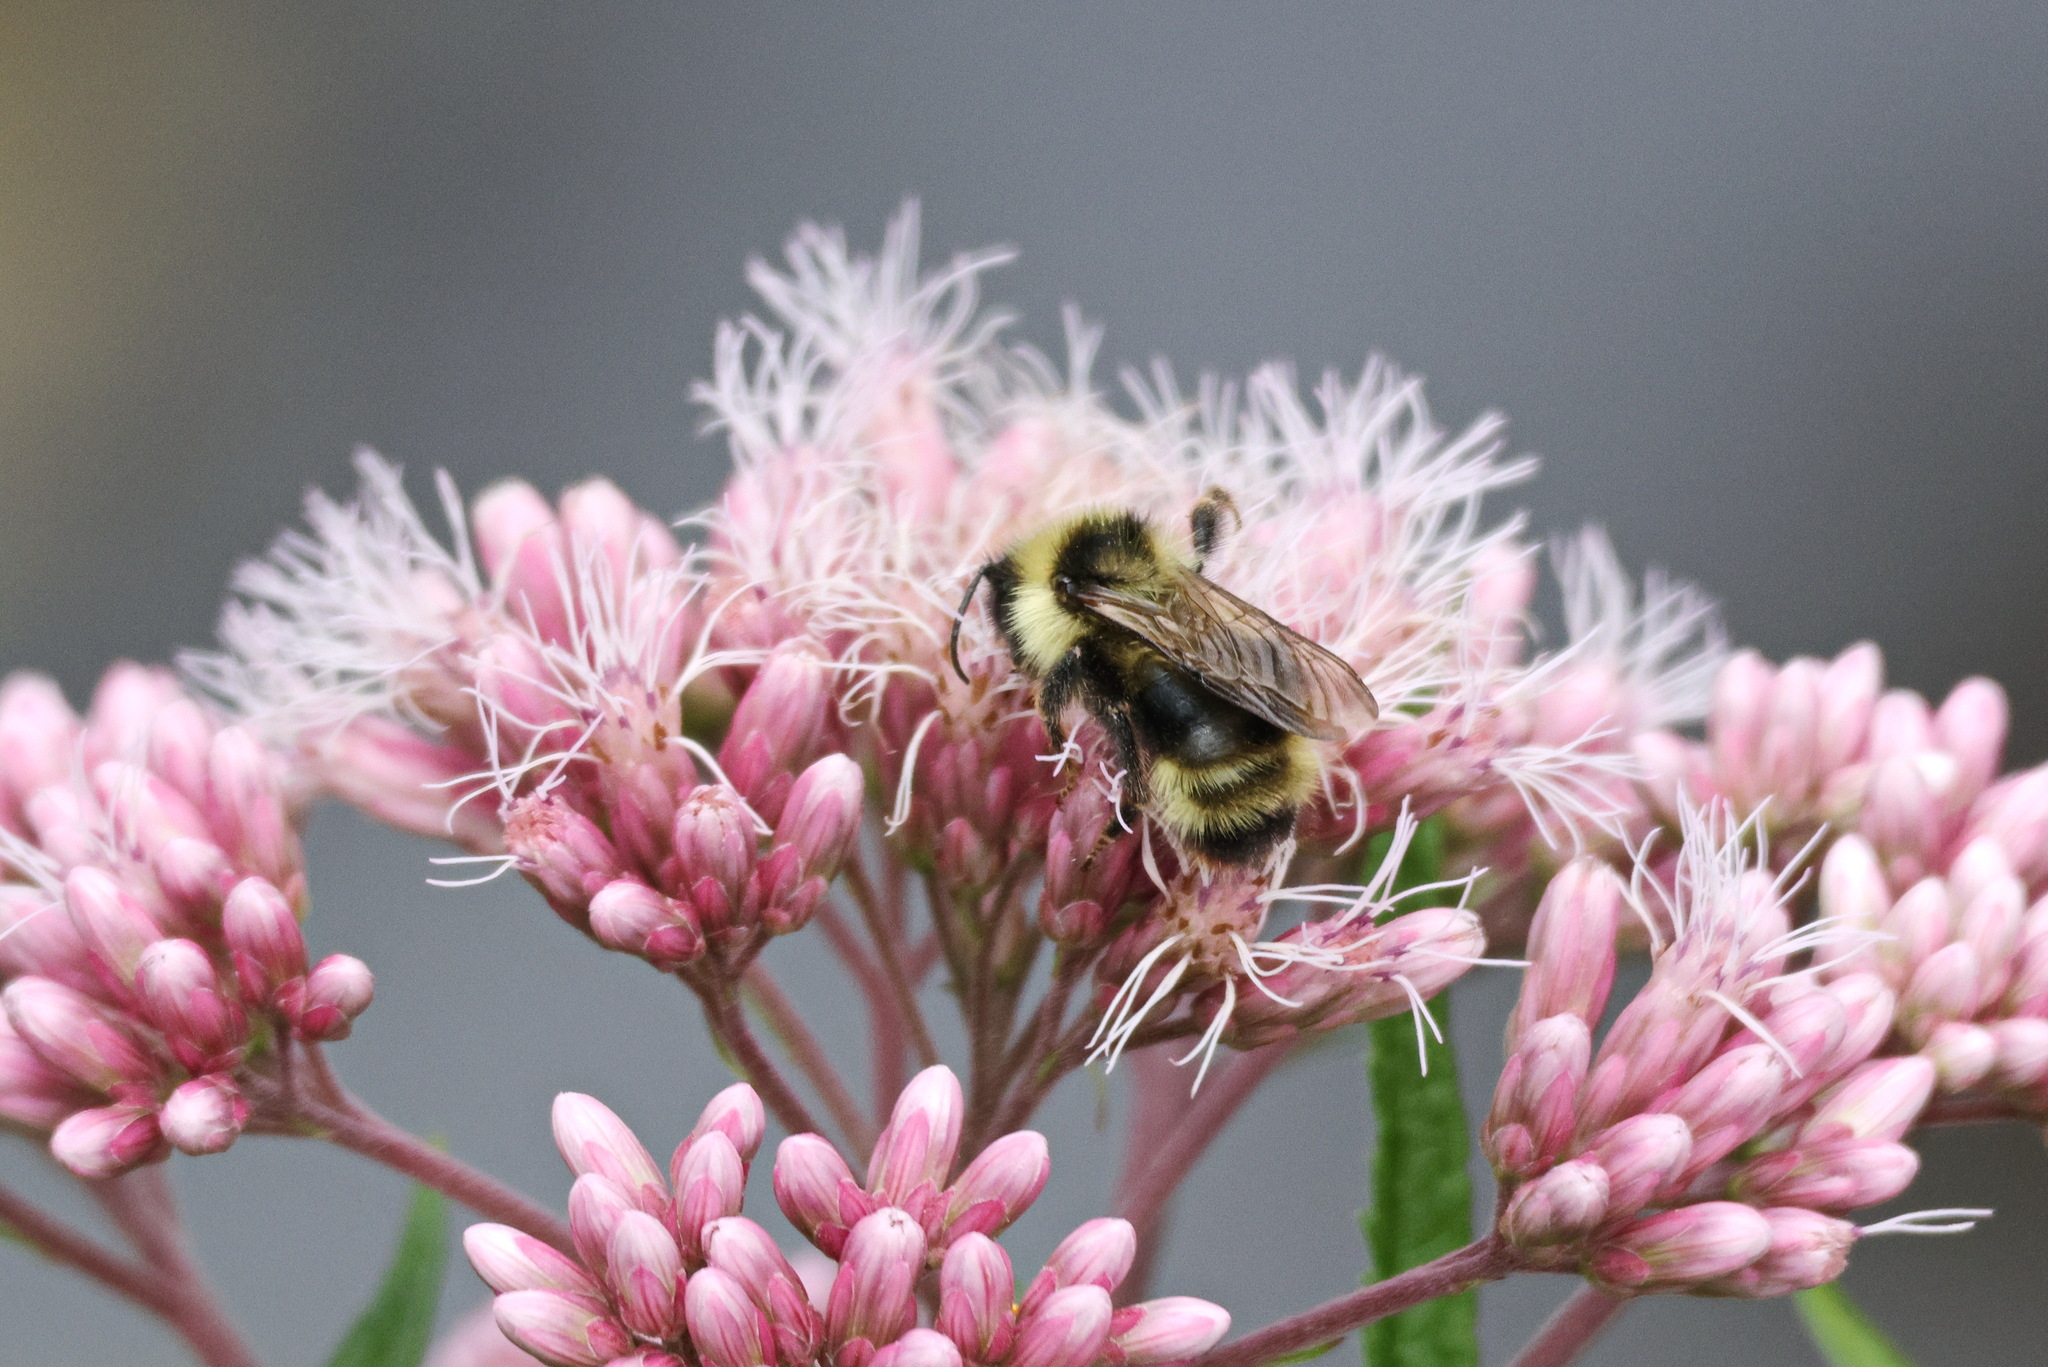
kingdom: Animalia
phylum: Arthropoda
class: Insecta
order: Hymenoptera
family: Apidae
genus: Bombus
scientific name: Bombus flavidus
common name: Fernald cuckoo bumble bee
